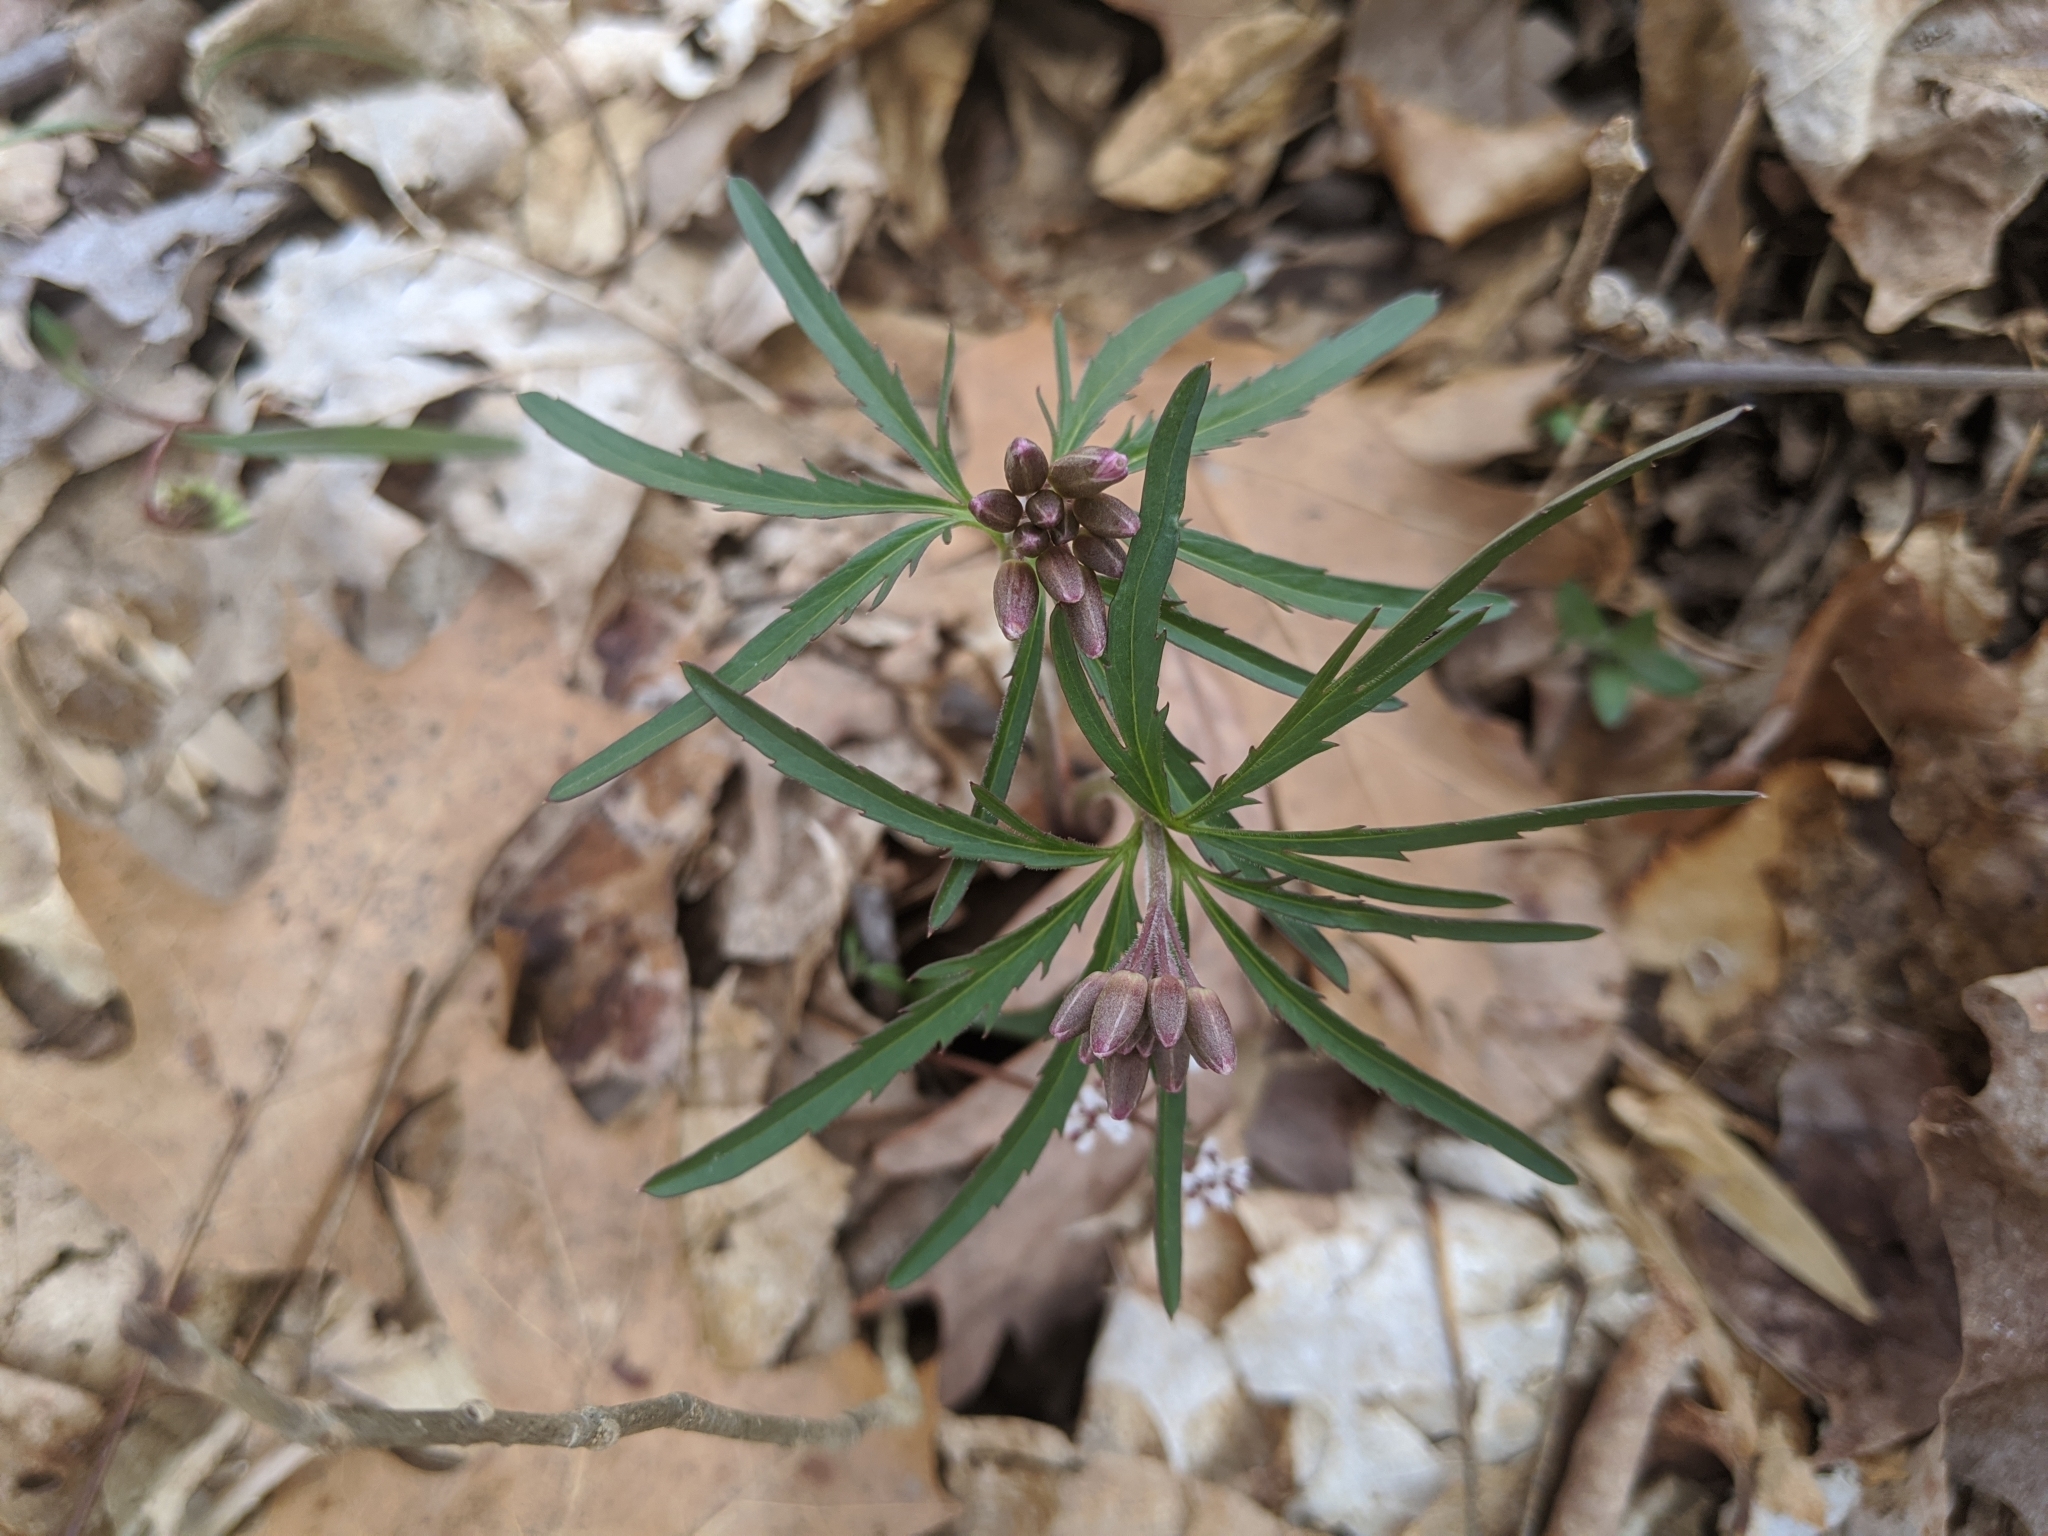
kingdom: Plantae
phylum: Tracheophyta
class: Magnoliopsida
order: Brassicales
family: Brassicaceae
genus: Cardamine
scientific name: Cardamine concatenata
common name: Cut-leaf toothcup
